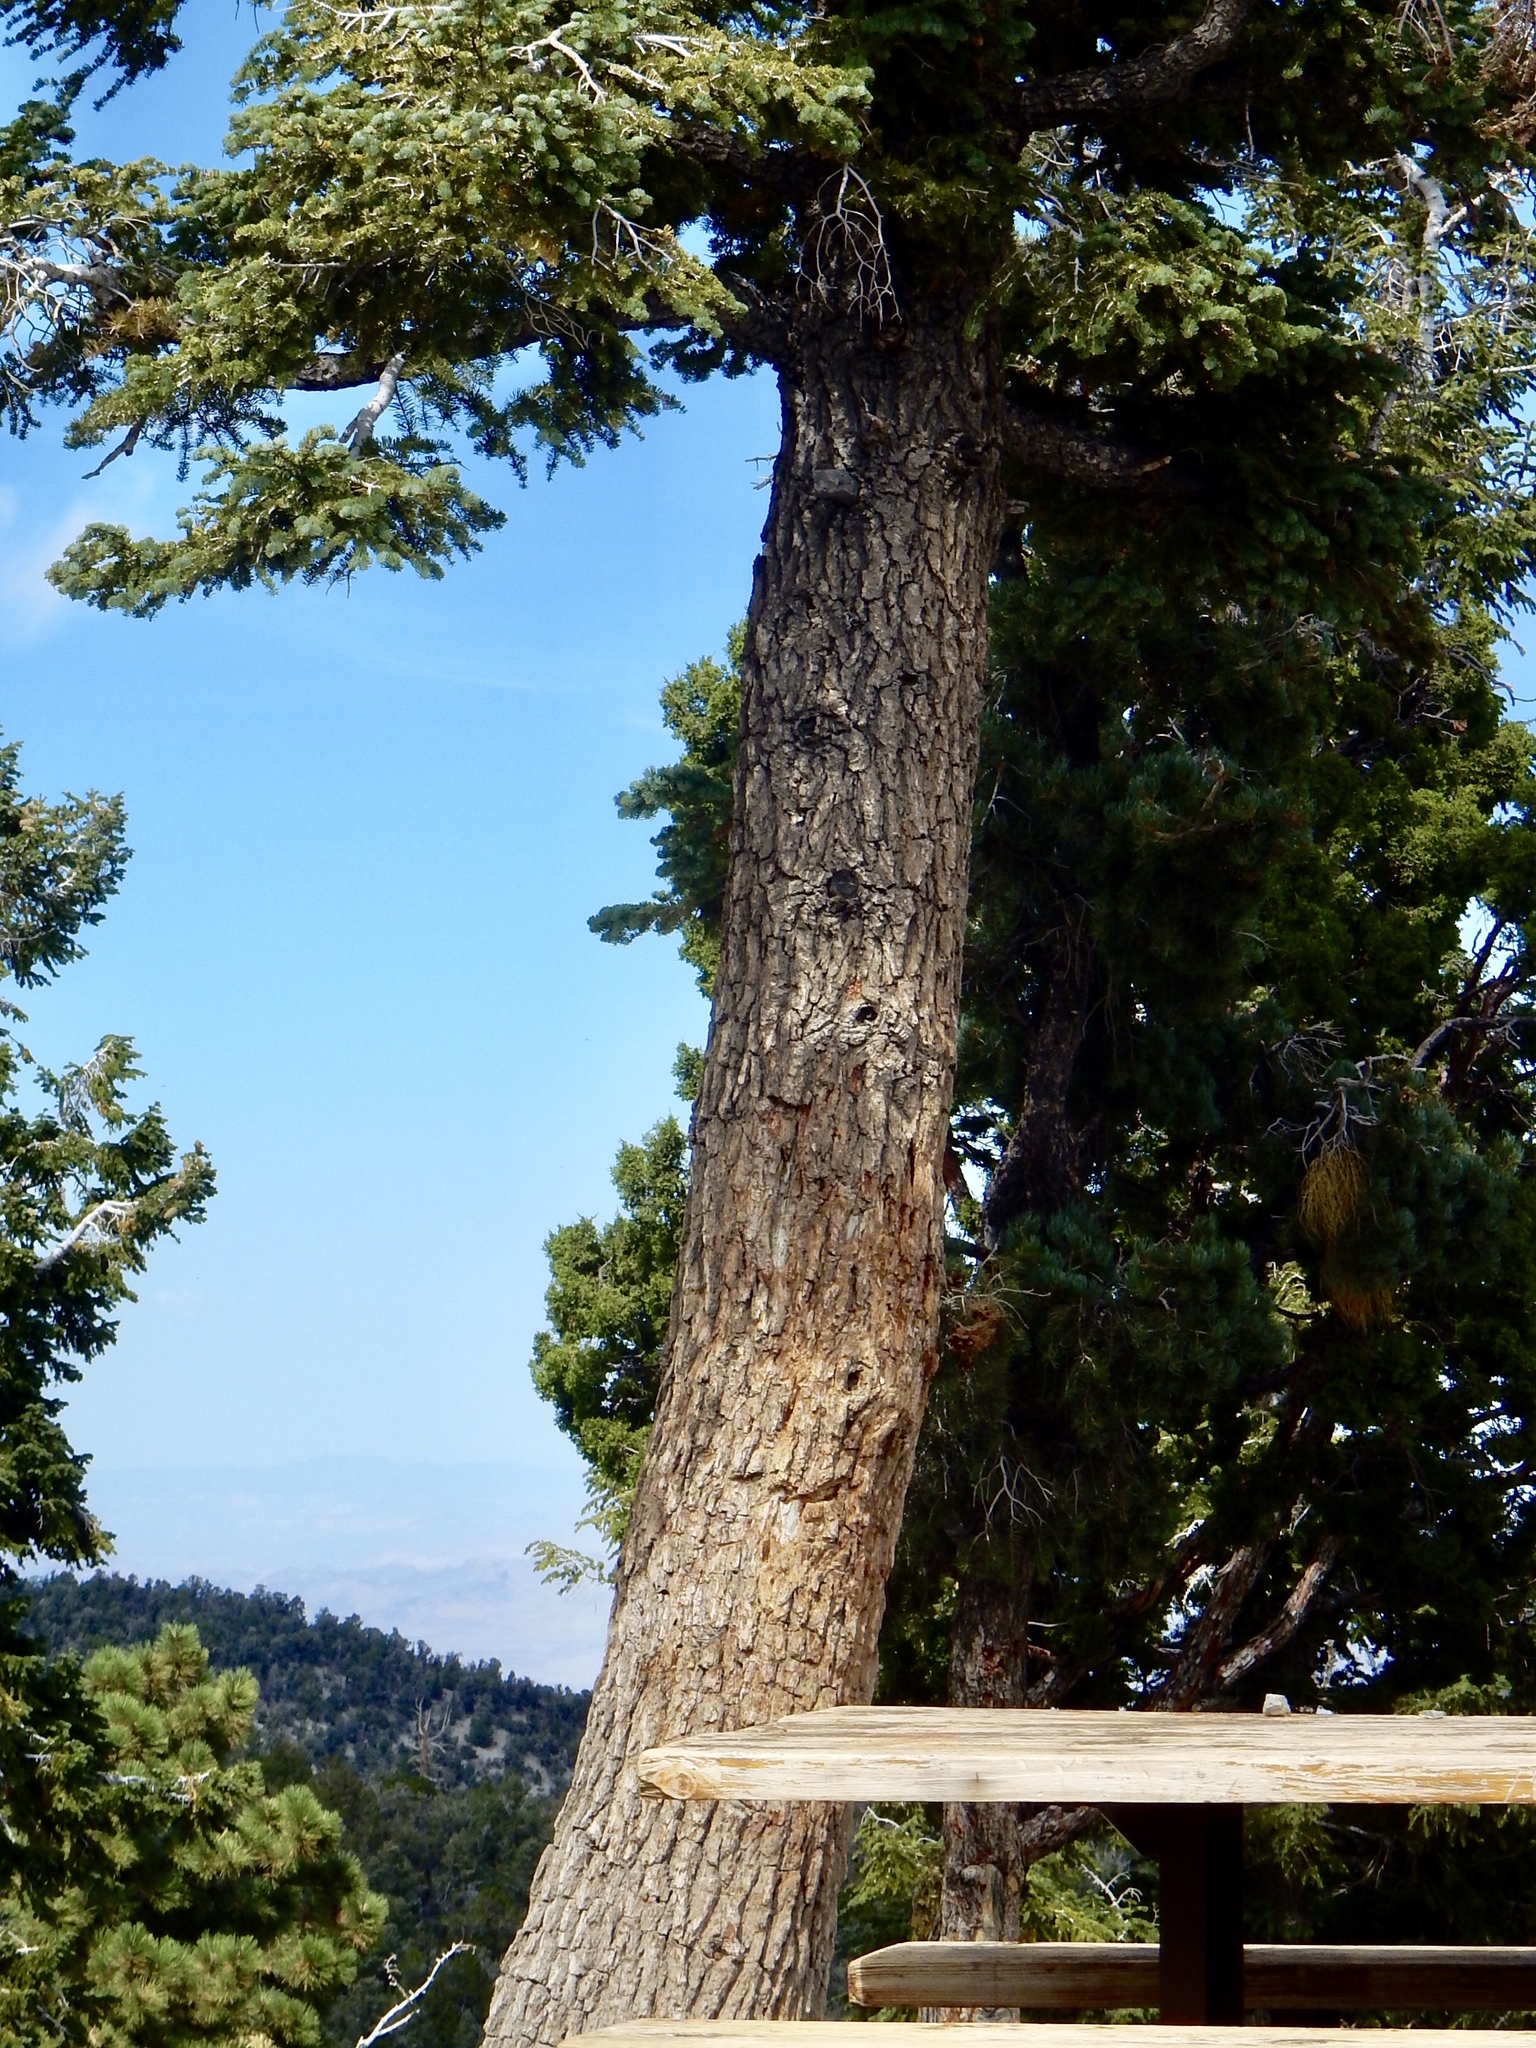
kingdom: Plantae
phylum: Tracheophyta
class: Pinopsida
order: Pinales
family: Pinaceae
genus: Abies
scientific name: Abies concolor
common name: Colorado fir
